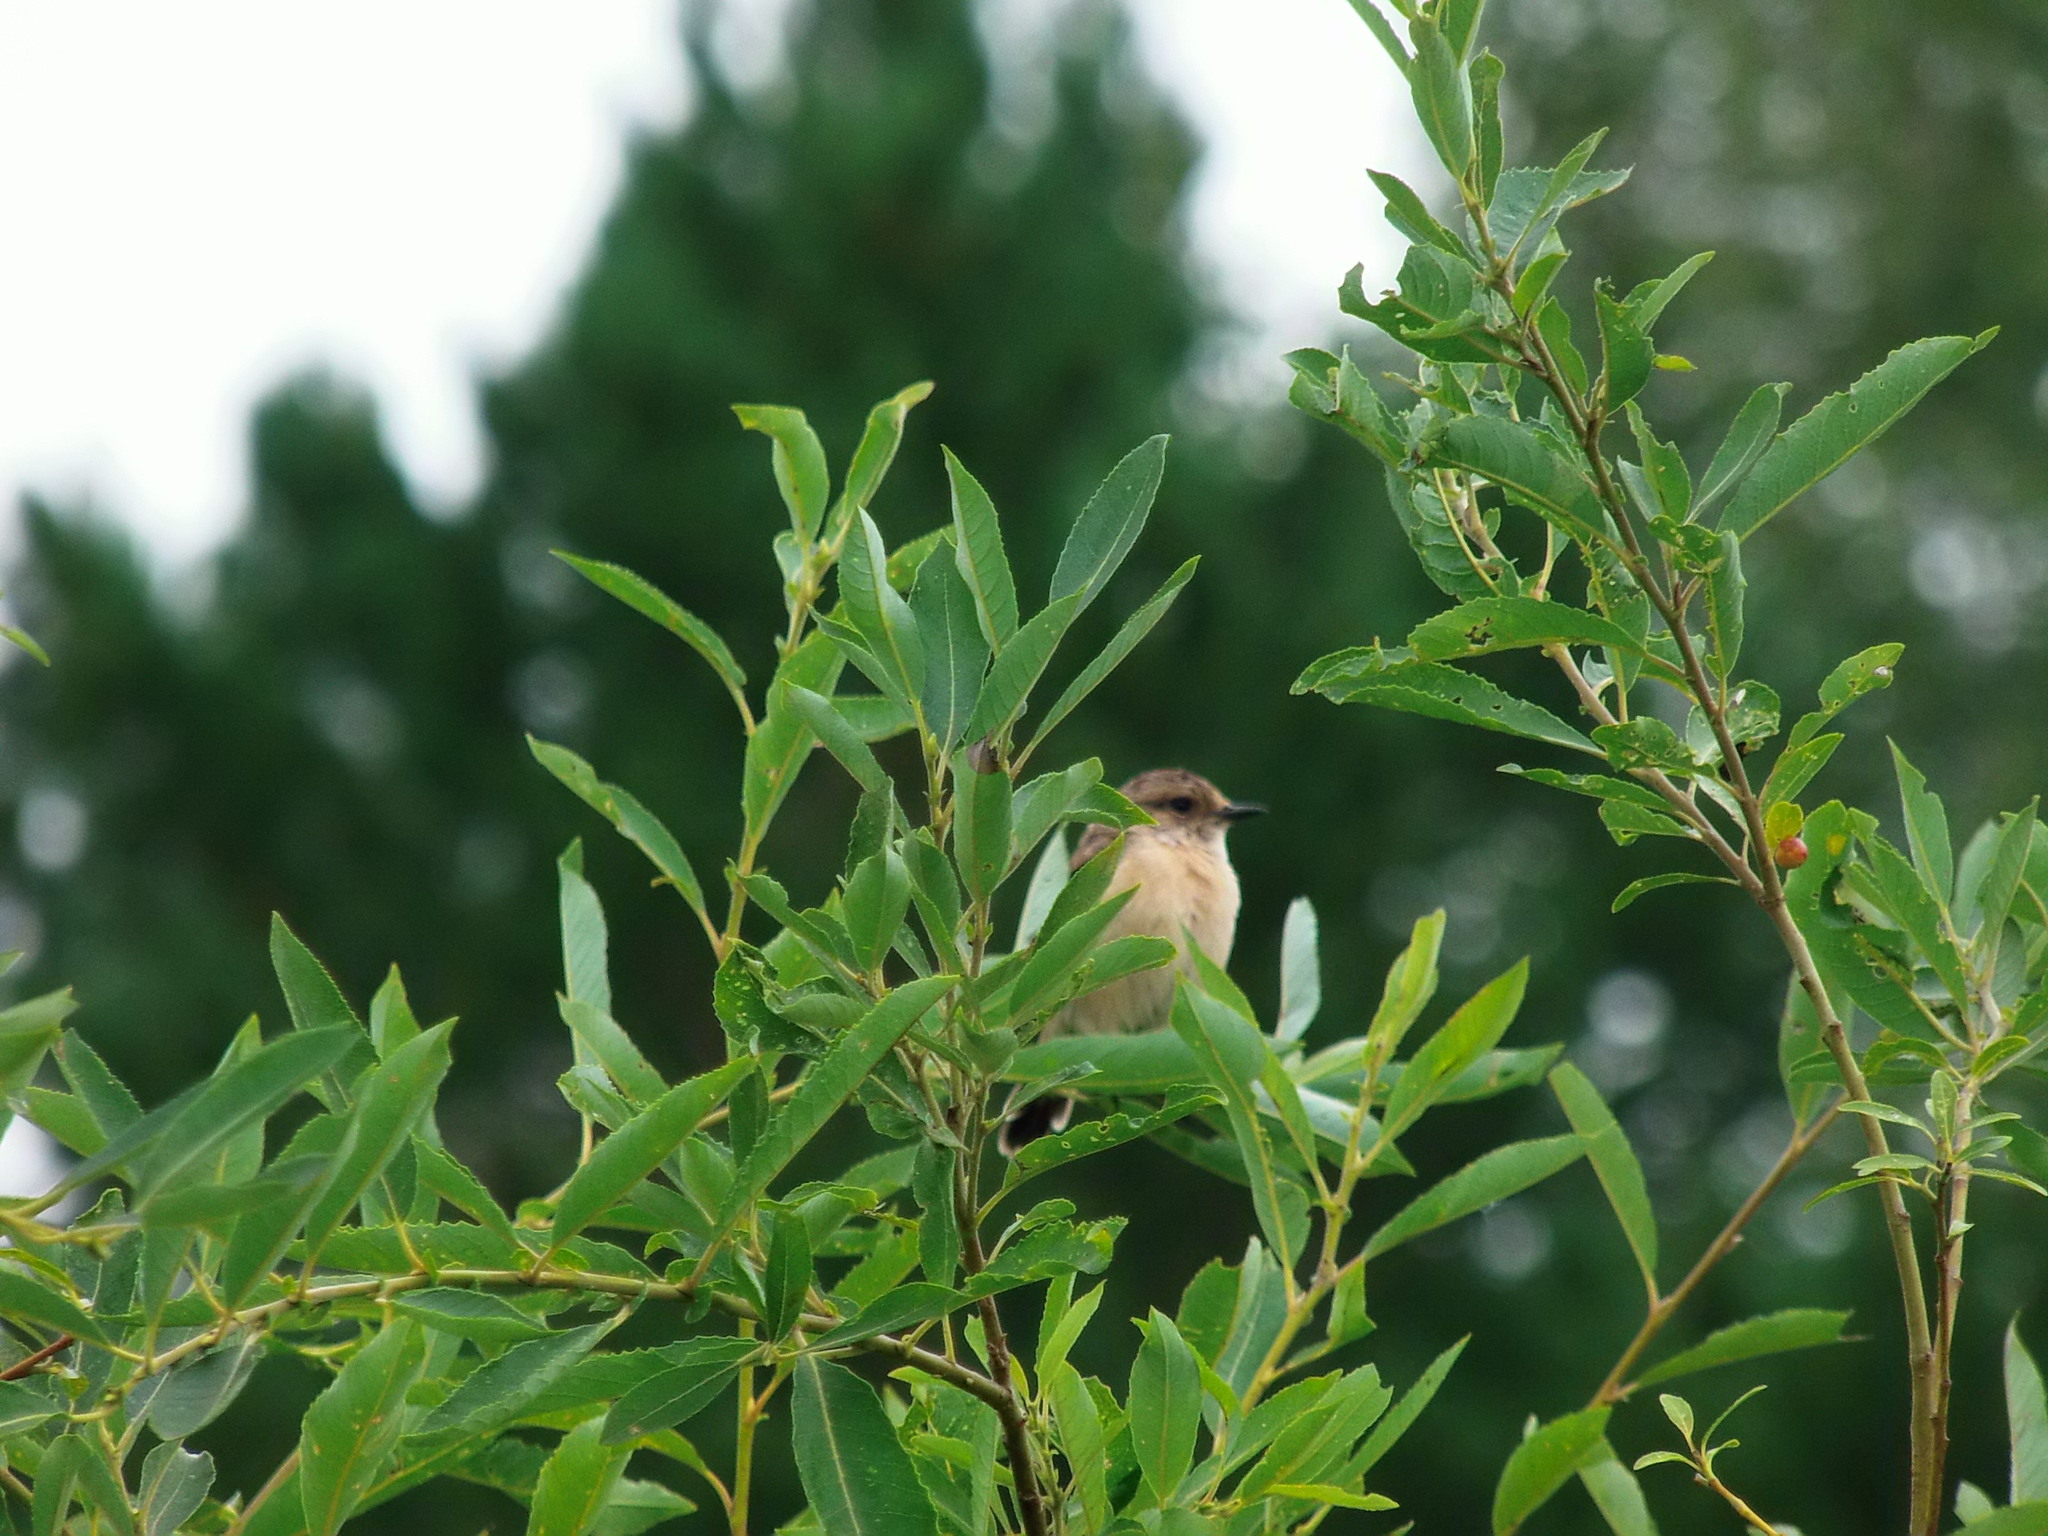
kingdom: Animalia
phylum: Chordata
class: Aves
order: Passeriformes
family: Muscicapidae
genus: Saxicola
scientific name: Saxicola maurus
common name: Siberian stonechat
